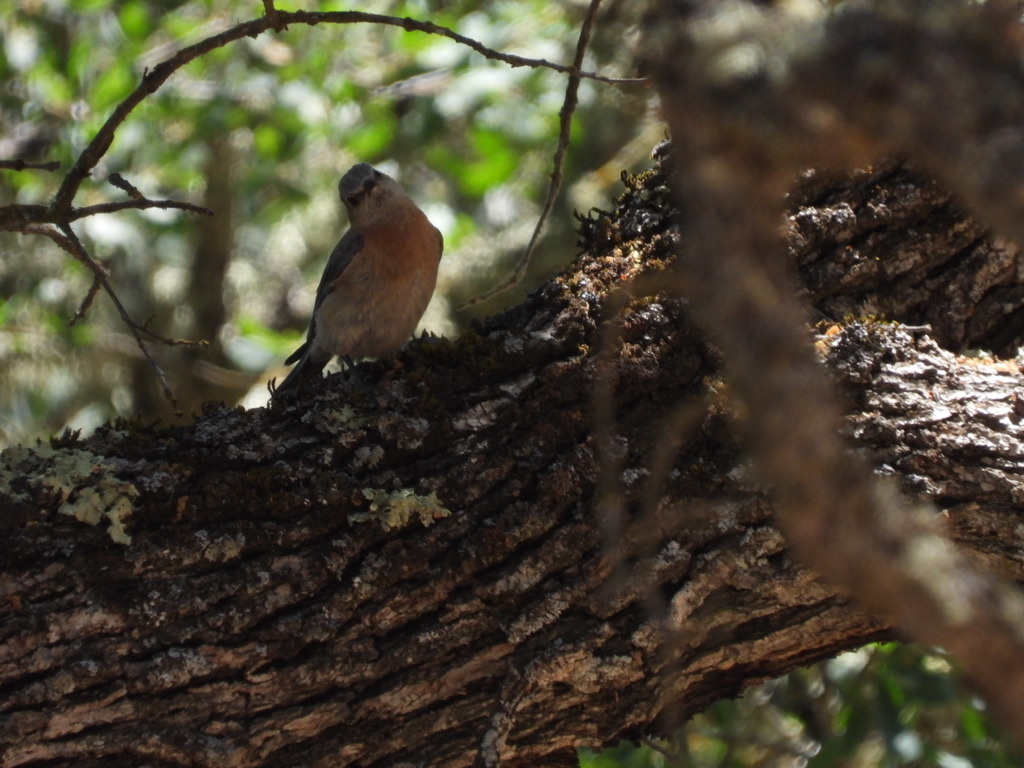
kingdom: Animalia
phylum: Chordata
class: Aves
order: Passeriformes
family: Turdidae
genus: Sialia
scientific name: Sialia mexicana
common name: Western bluebird
